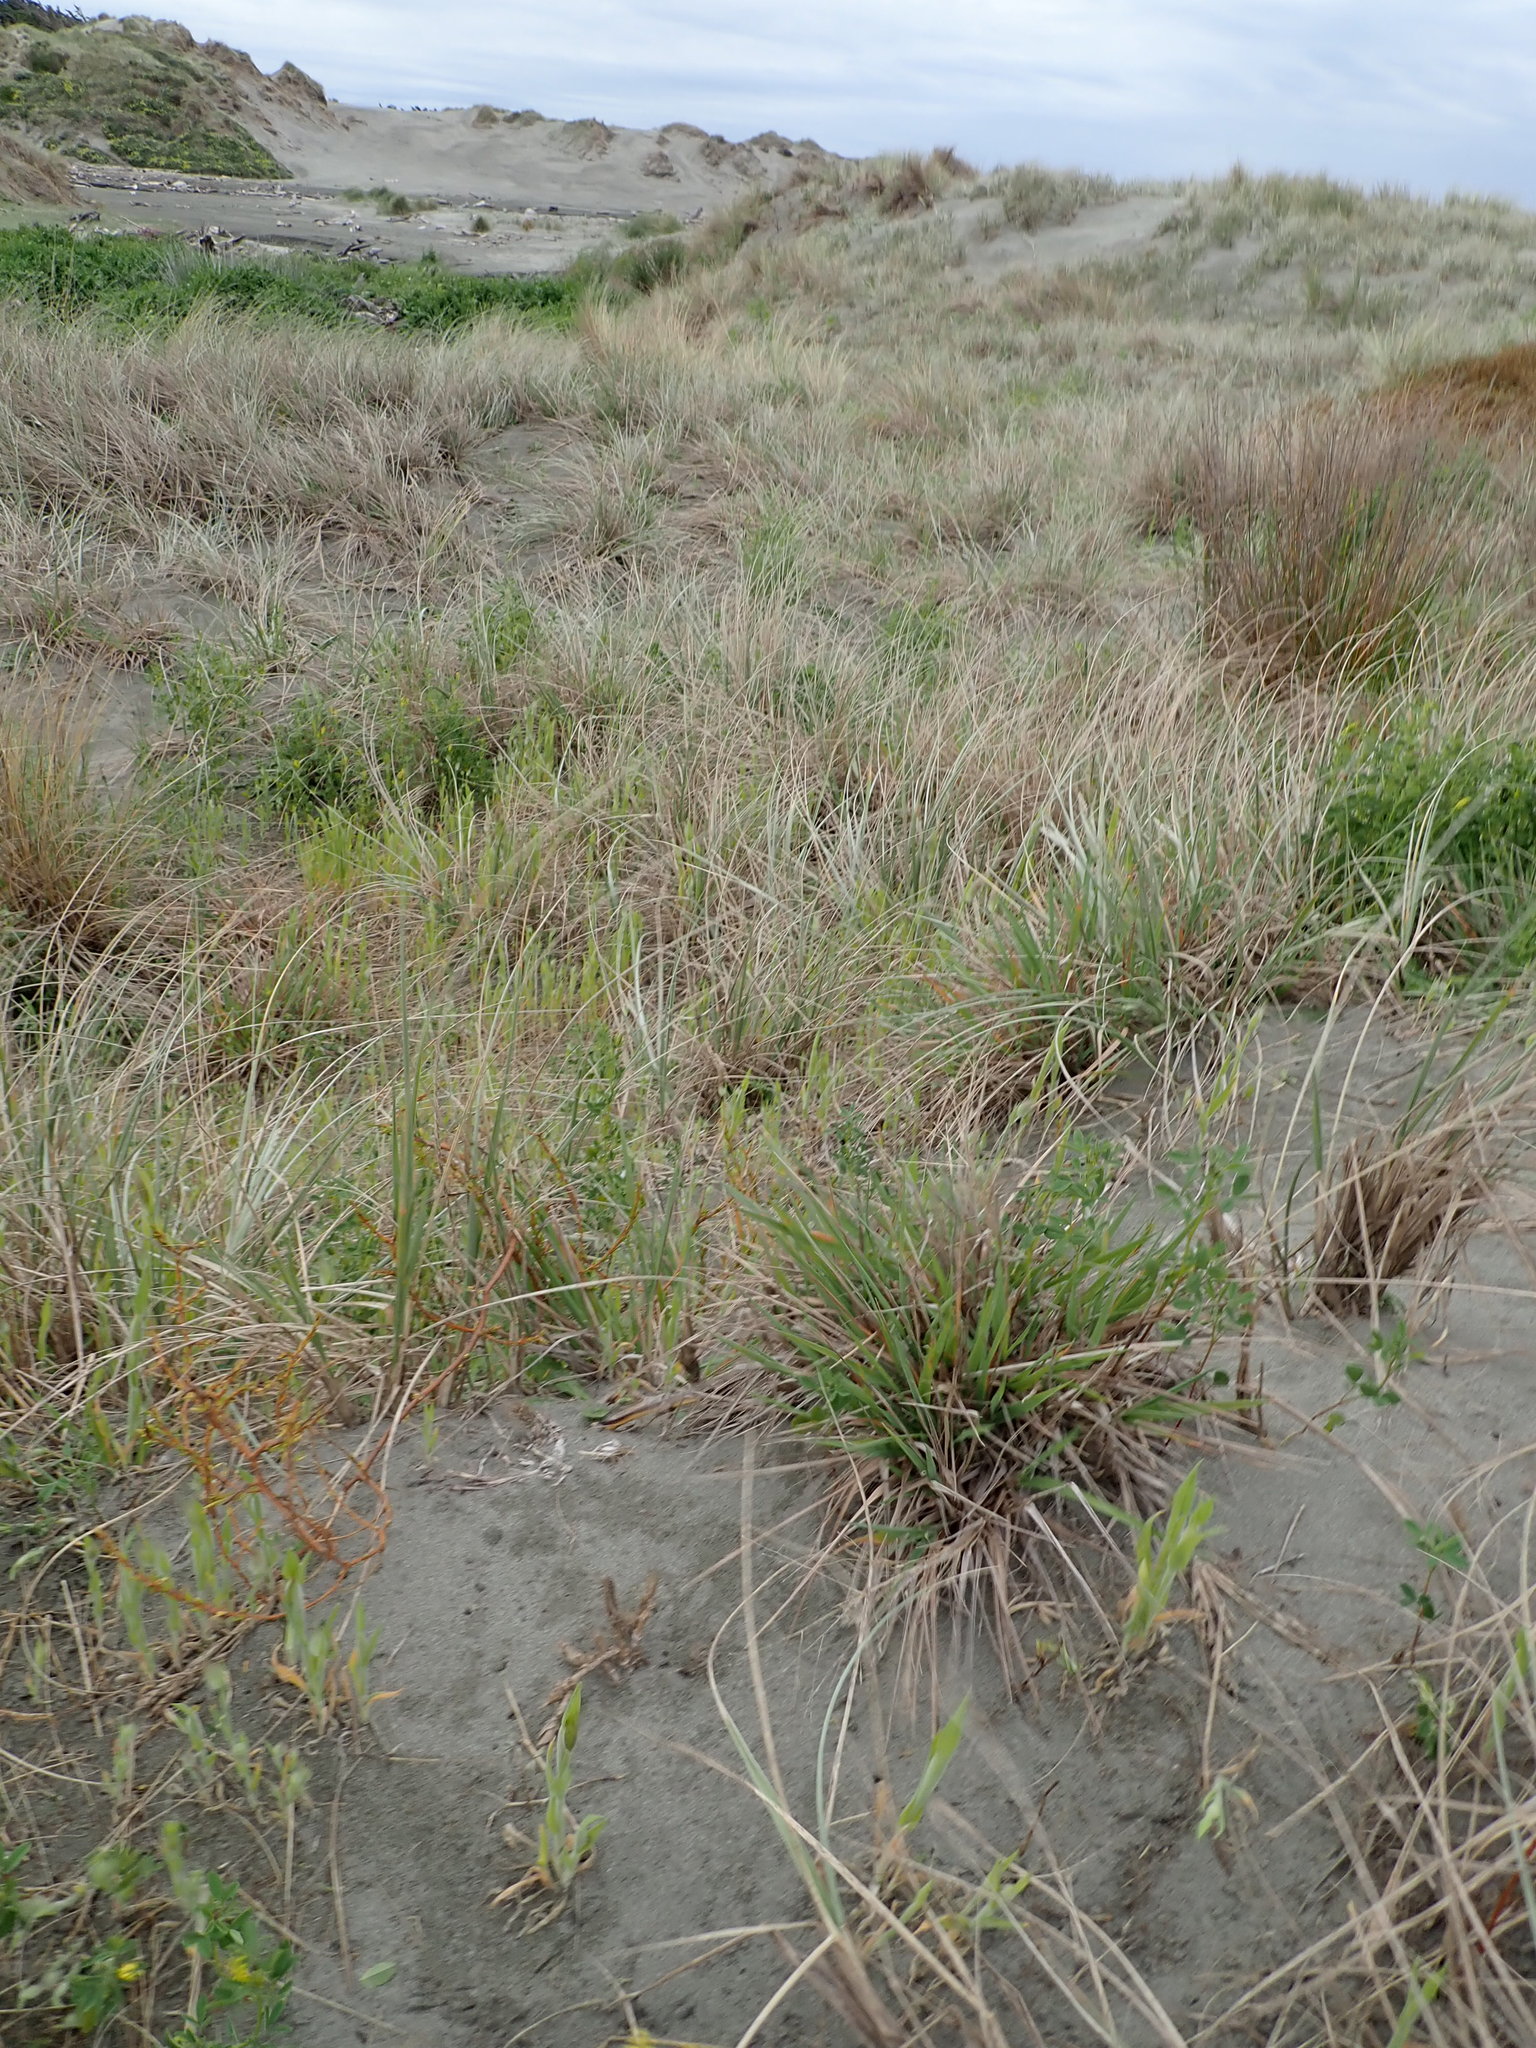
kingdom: Plantae
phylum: Tracheophyta
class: Liliopsida
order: Poales
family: Poaceae
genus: Lachnagrostis
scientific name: Lachnagrostis billardierei
